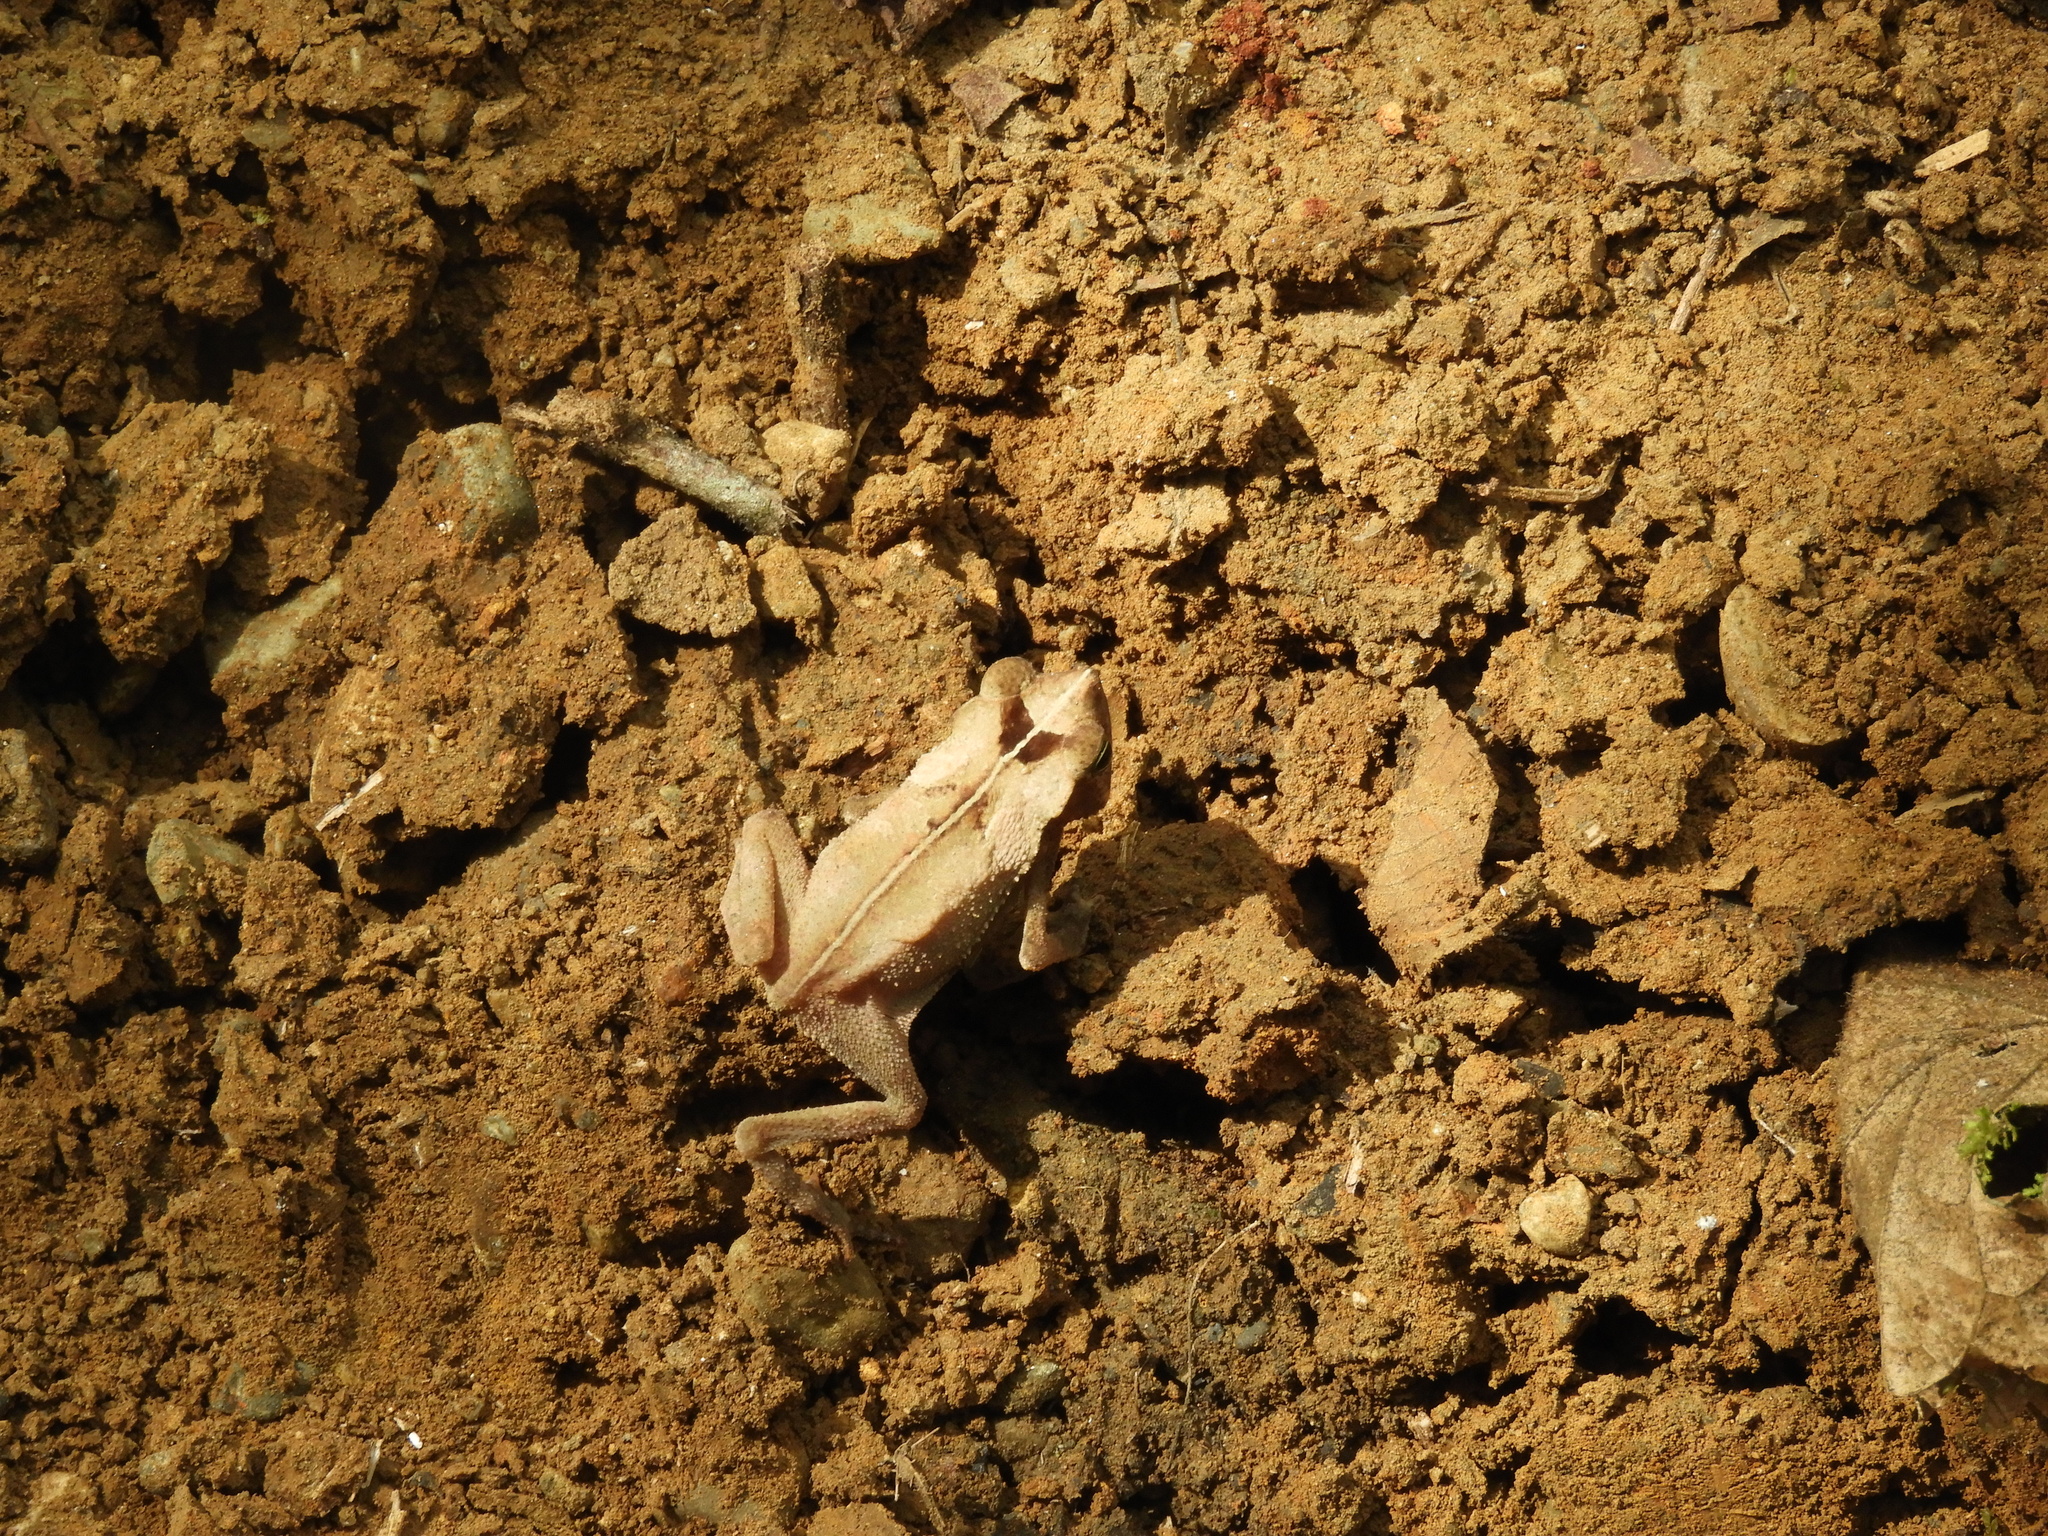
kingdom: Animalia
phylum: Chordata
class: Amphibia
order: Anura
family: Bufonidae
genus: Rhinella
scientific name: Rhinella alata
